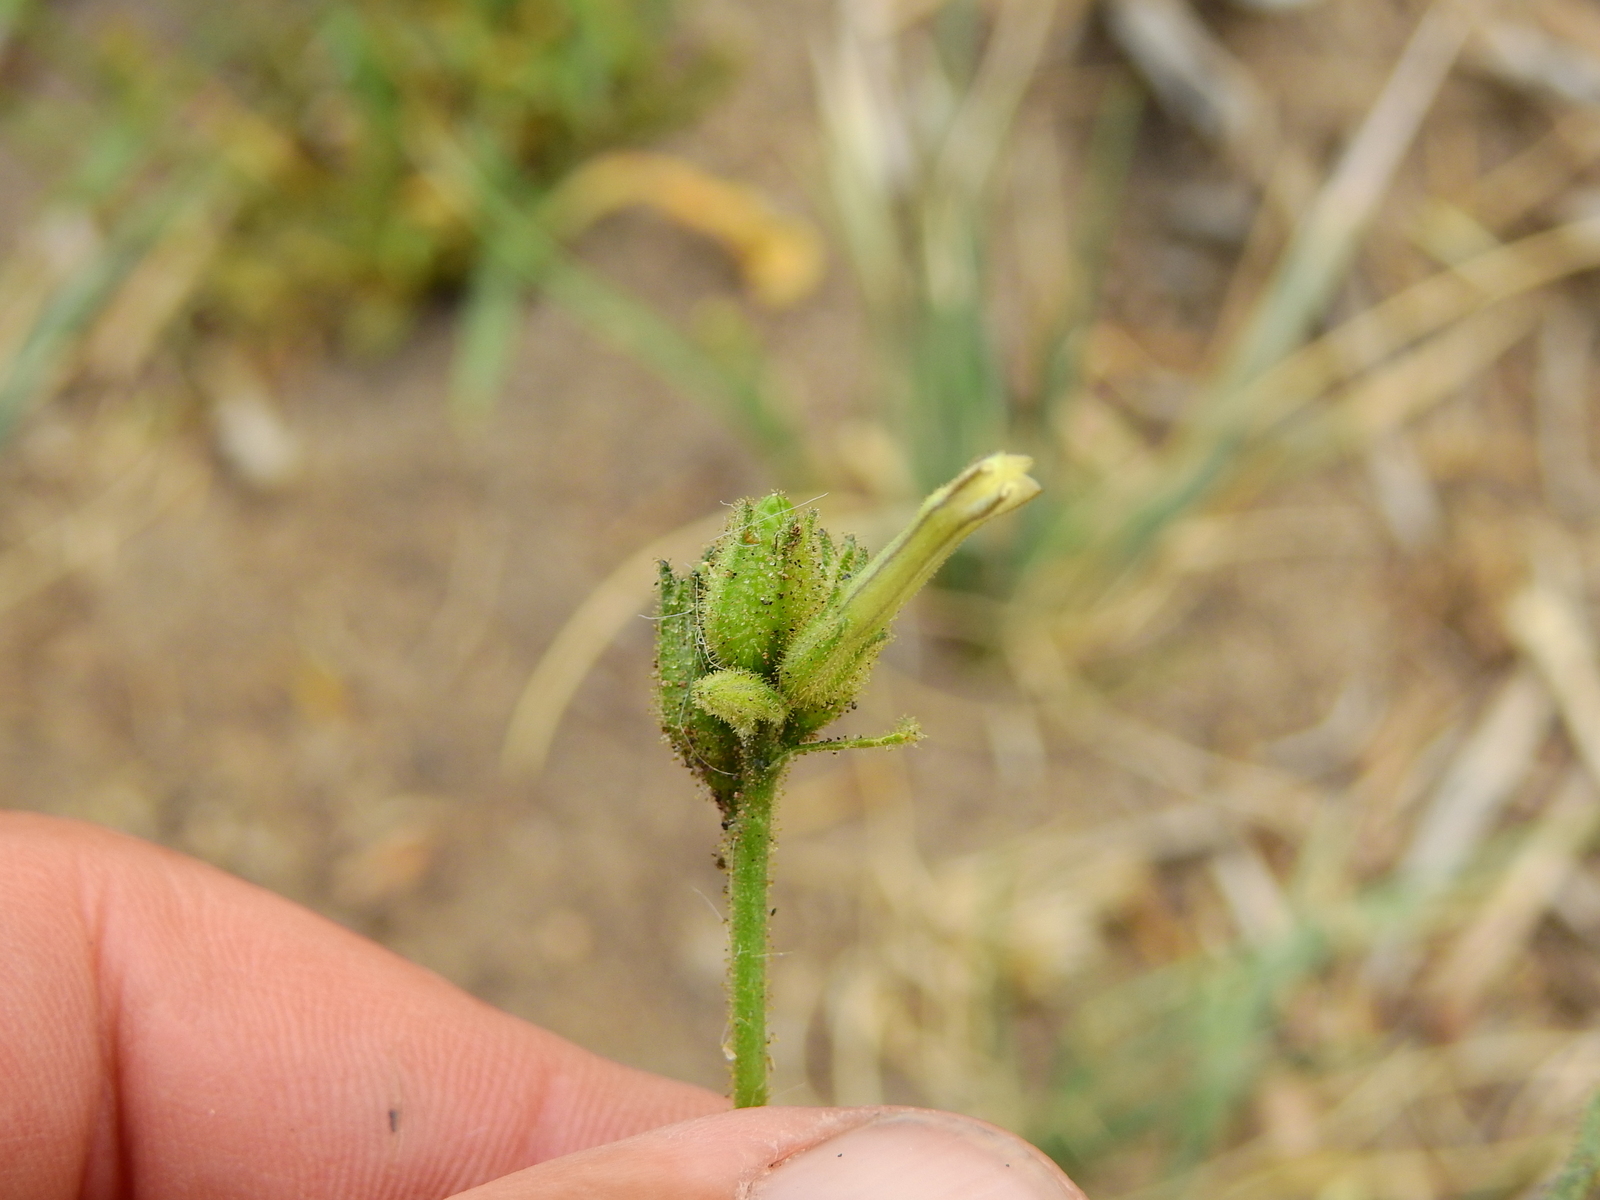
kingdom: Plantae
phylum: Tracheophyta
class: Magnoliopsida
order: Solanales
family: Solanaceae
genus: Nicotiana
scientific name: Nicotiana corymbosa
